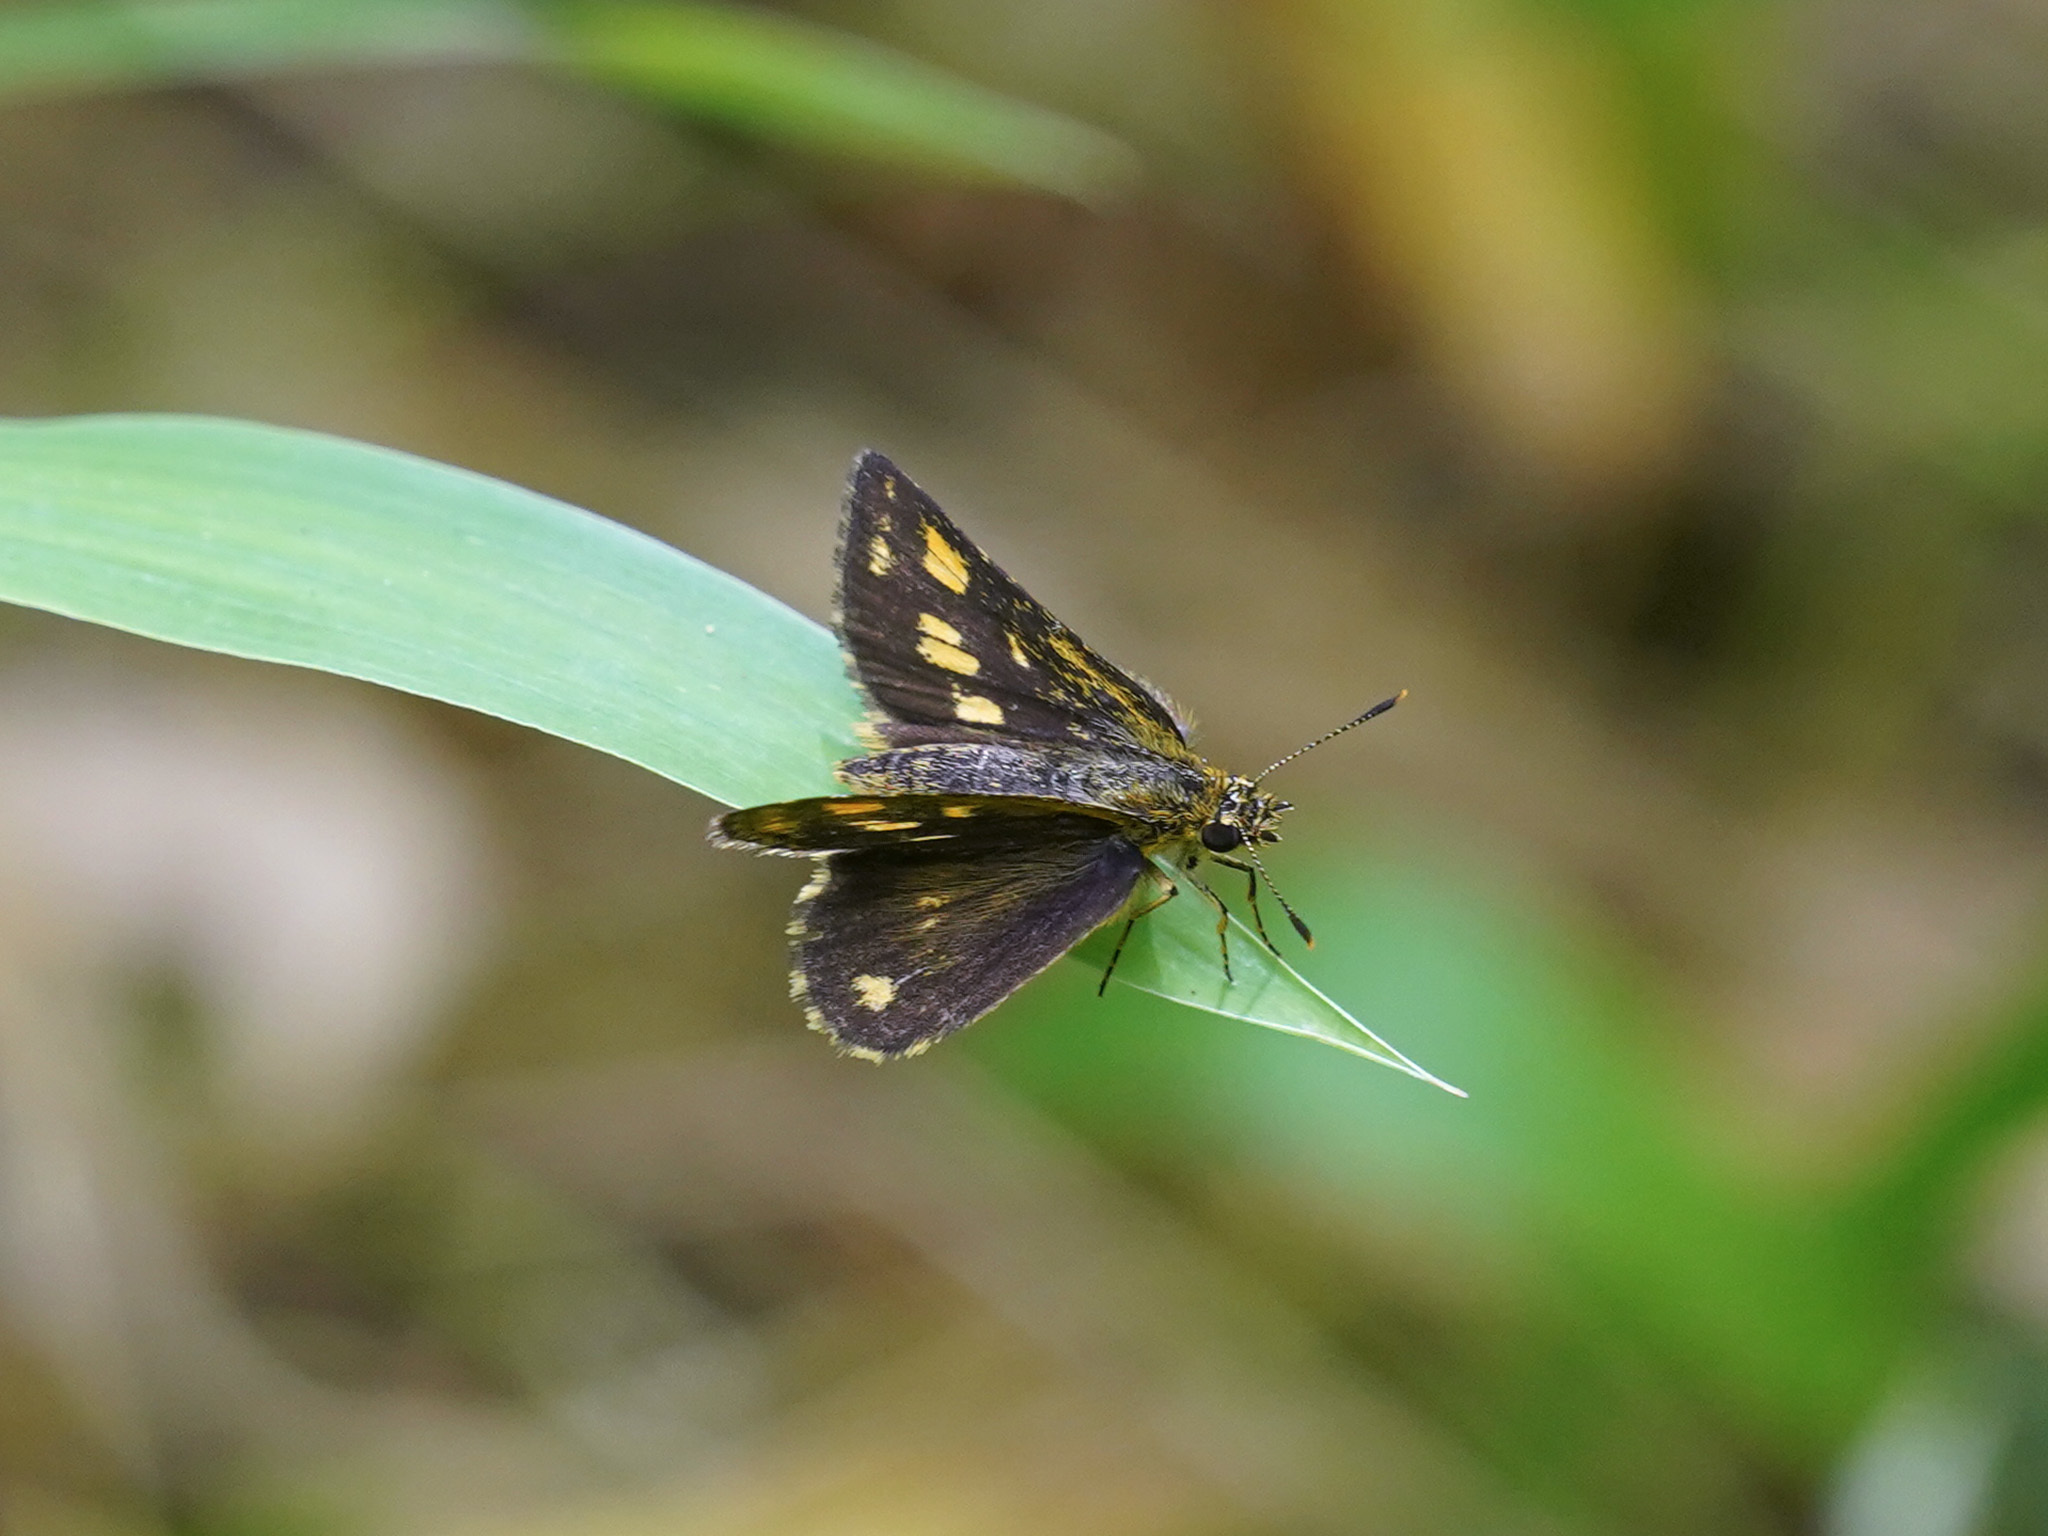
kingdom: Animalia
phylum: Arthropoda
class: Insecta
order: Lepidoptera
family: Hesperiidae
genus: Ampittia
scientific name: Ampittia dioscorides
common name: Common bush hopper
